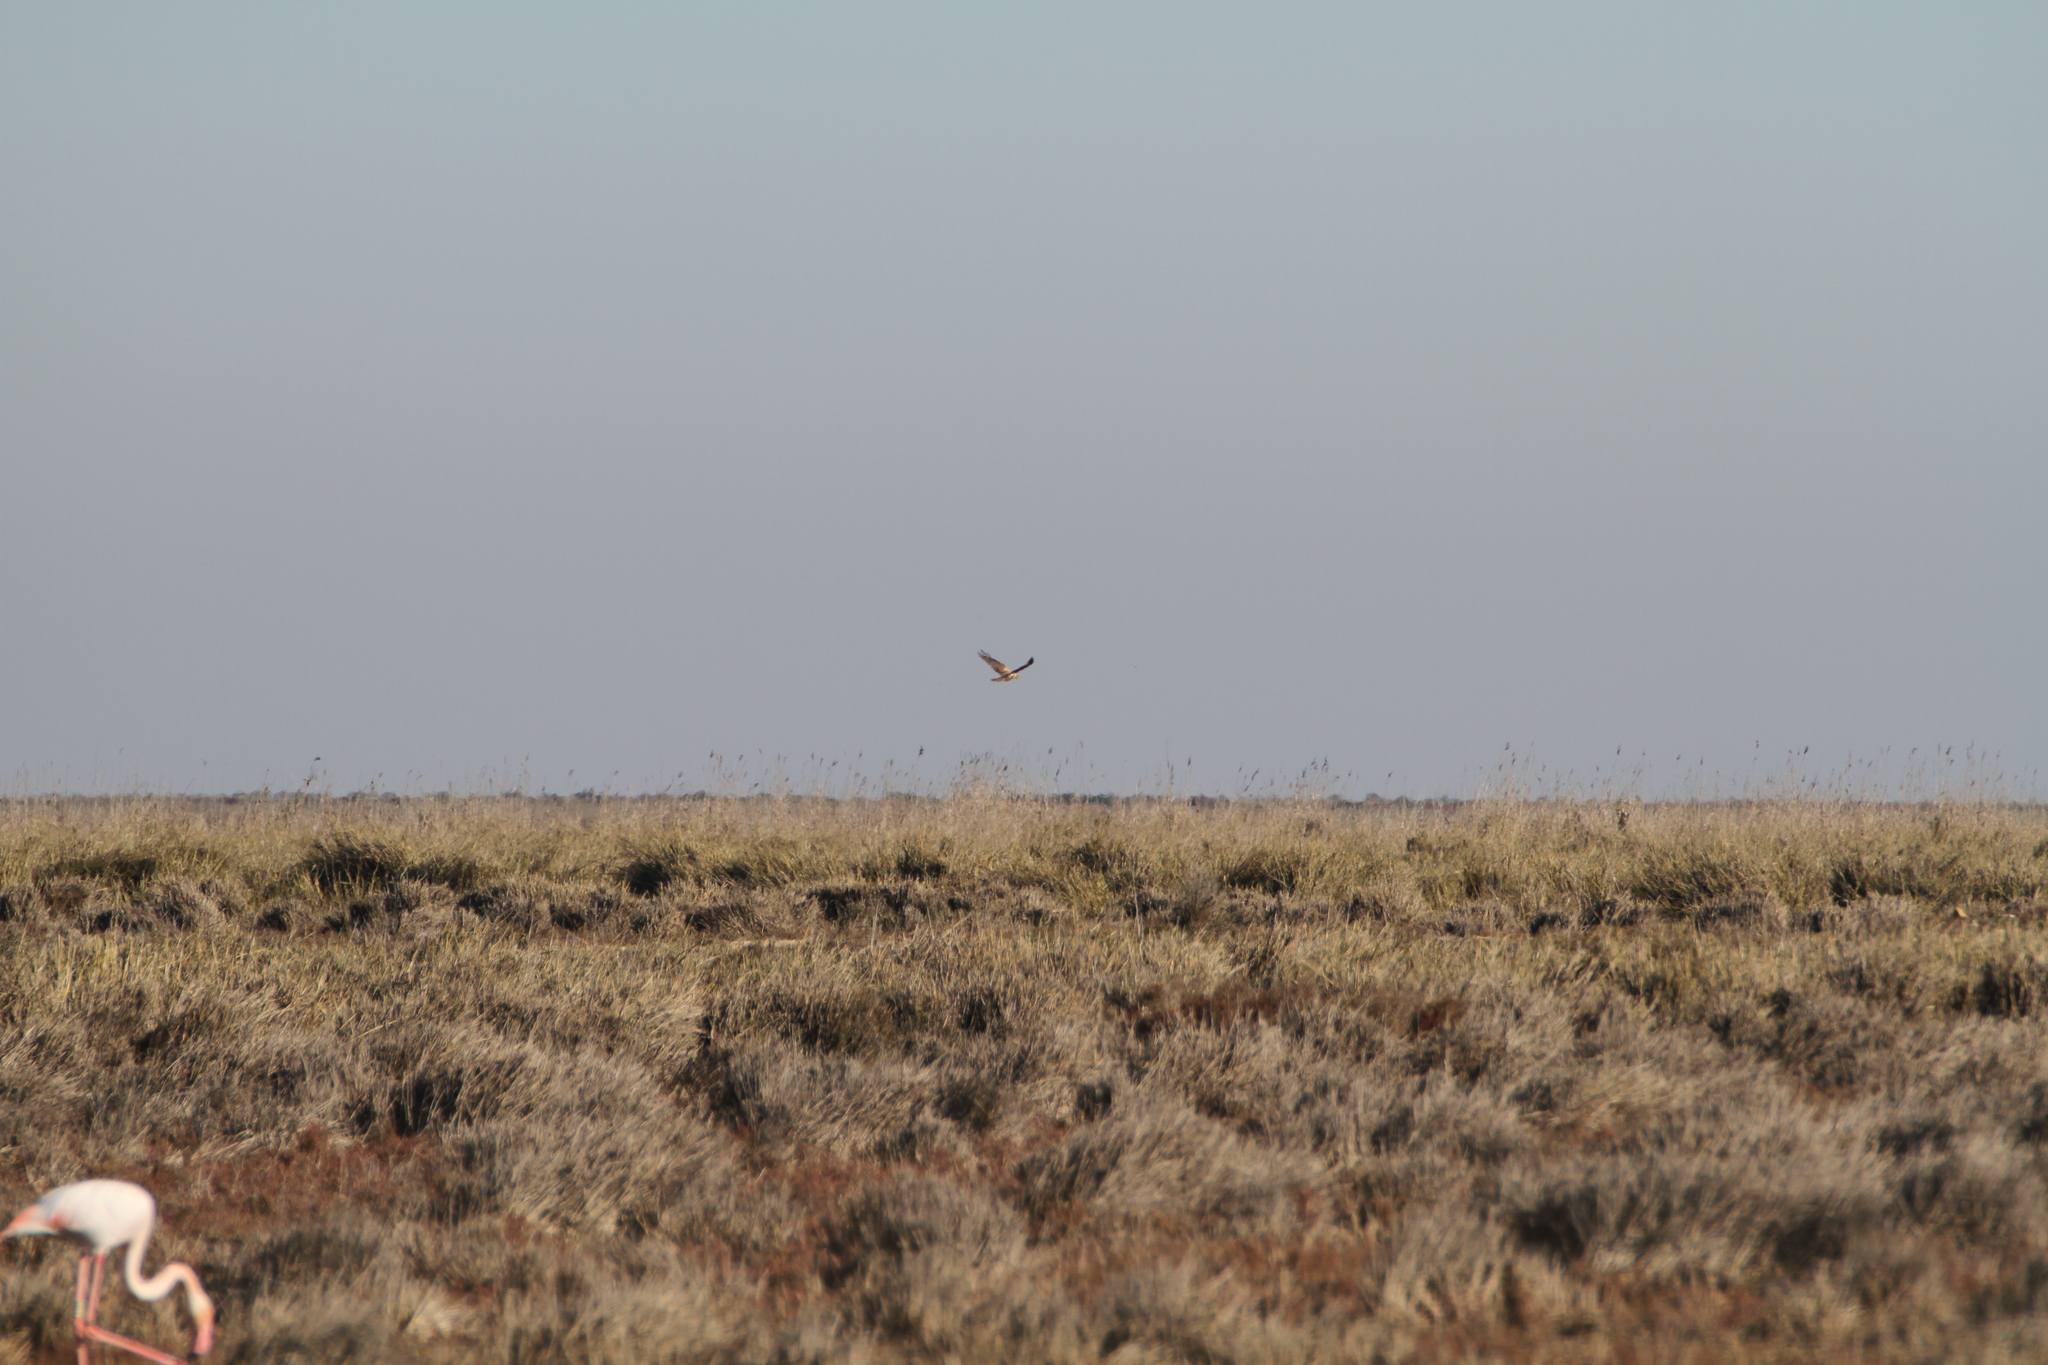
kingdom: Animalia
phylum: Chordata
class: Aves
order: Accipitriformes
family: Accipitridae
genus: Circus
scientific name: Circus aeruginosus
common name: Western marsh harrier
